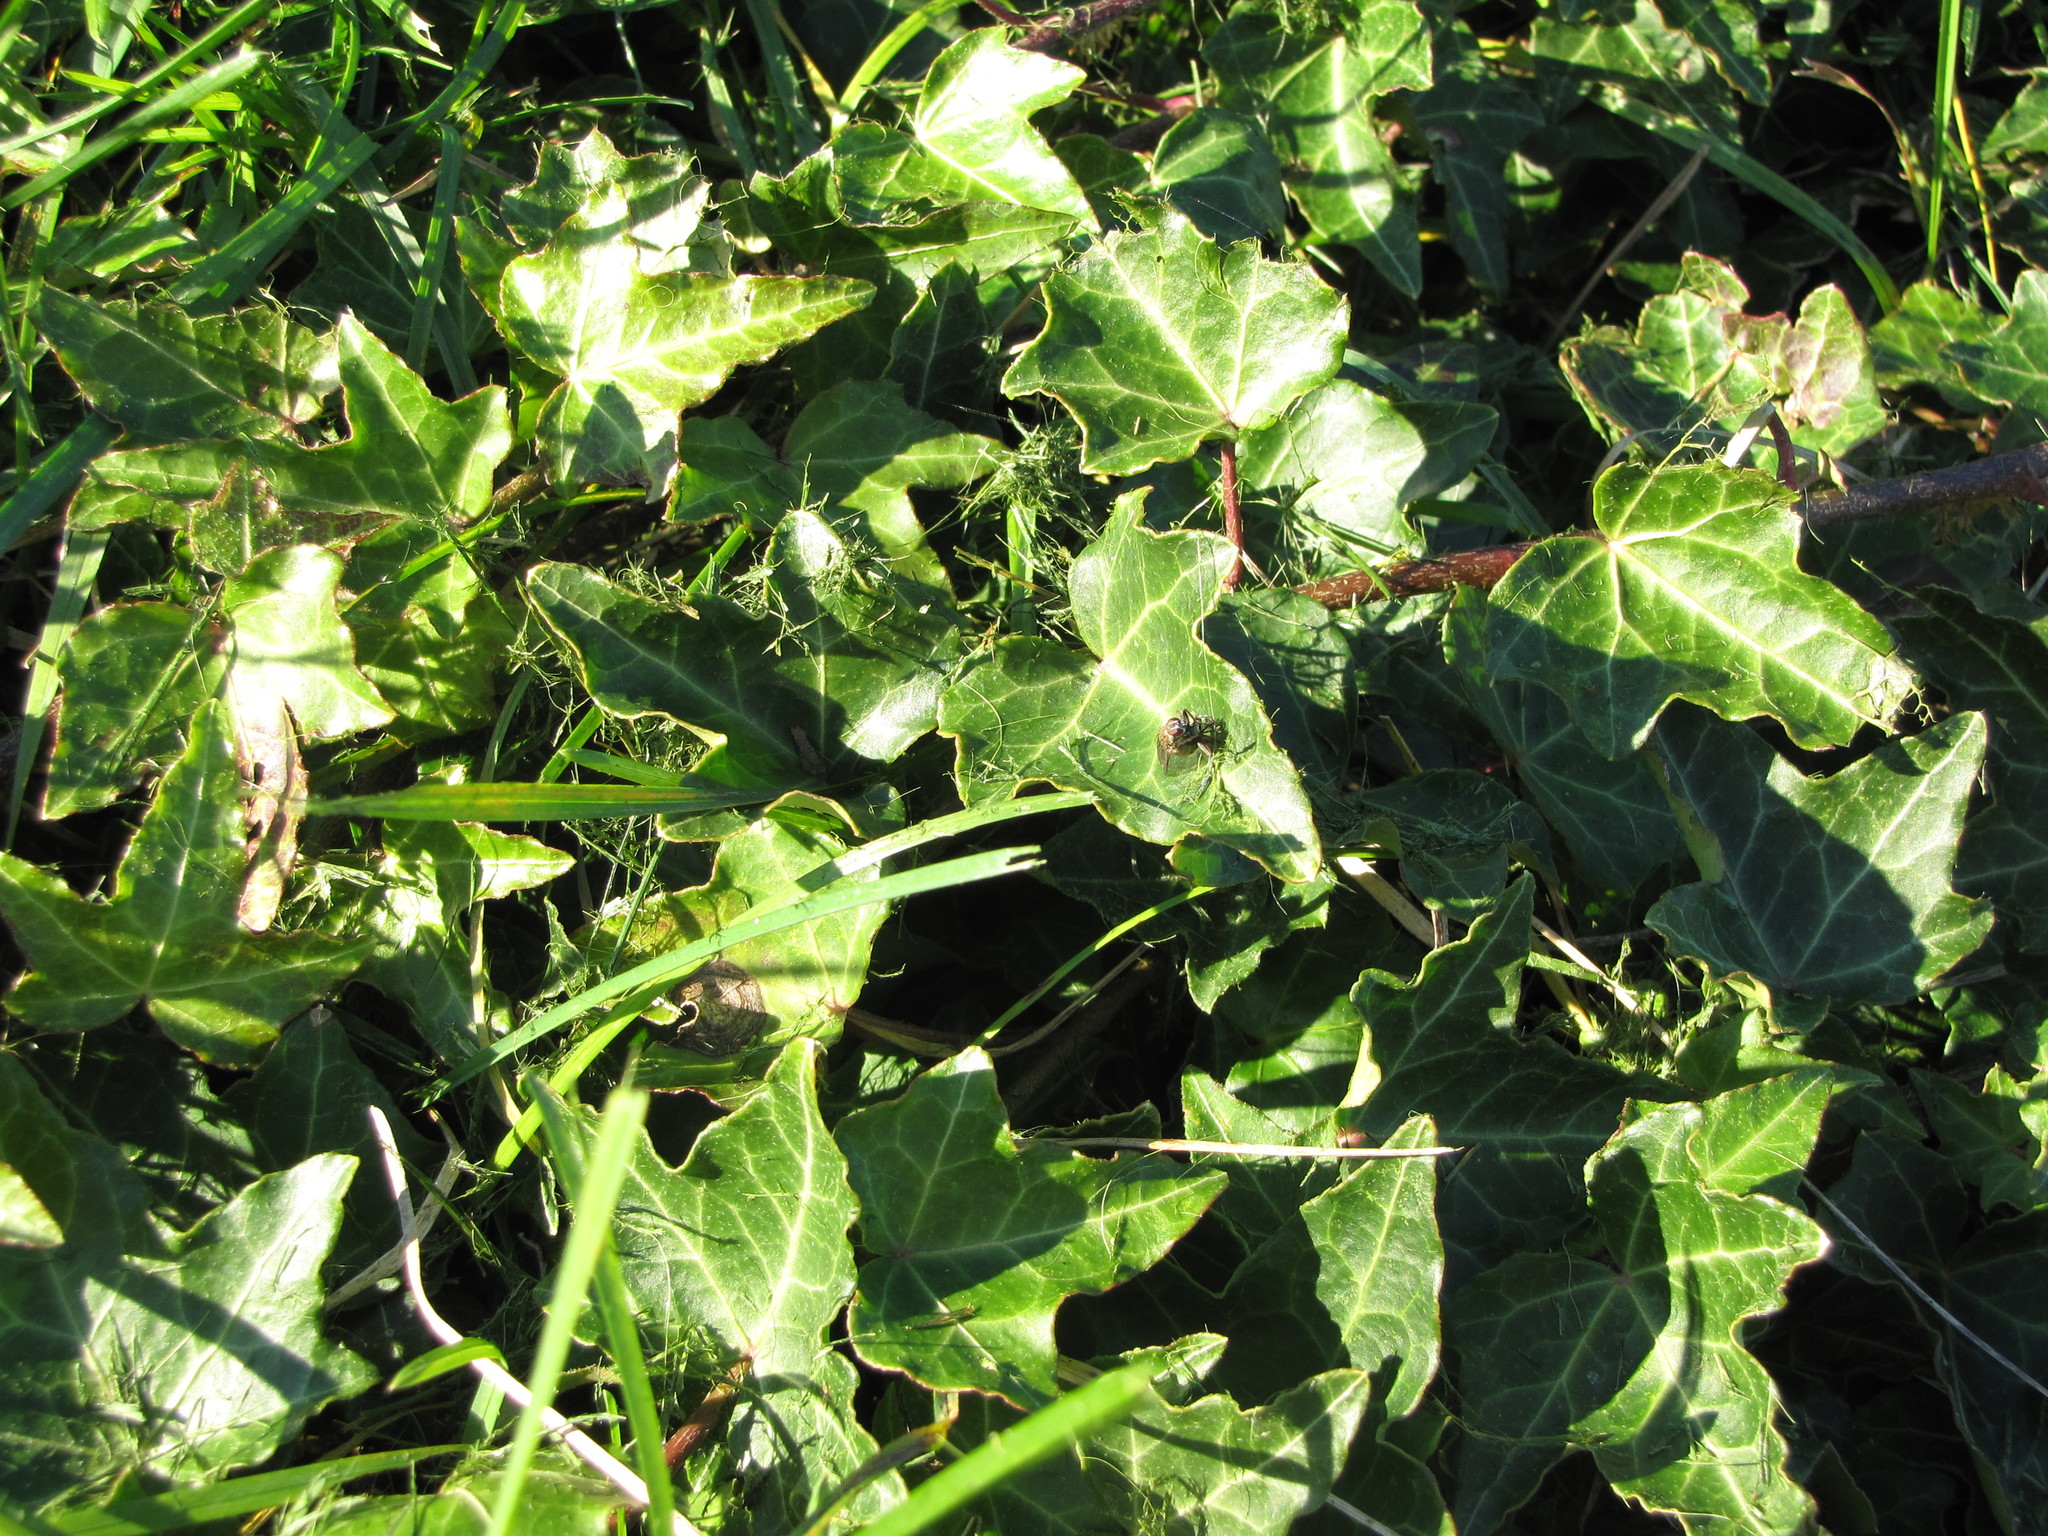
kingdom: Animalia
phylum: Arthropoda
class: Insecta
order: Diptera
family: Muscidae
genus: Coenosia
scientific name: Coenosia tigrina
